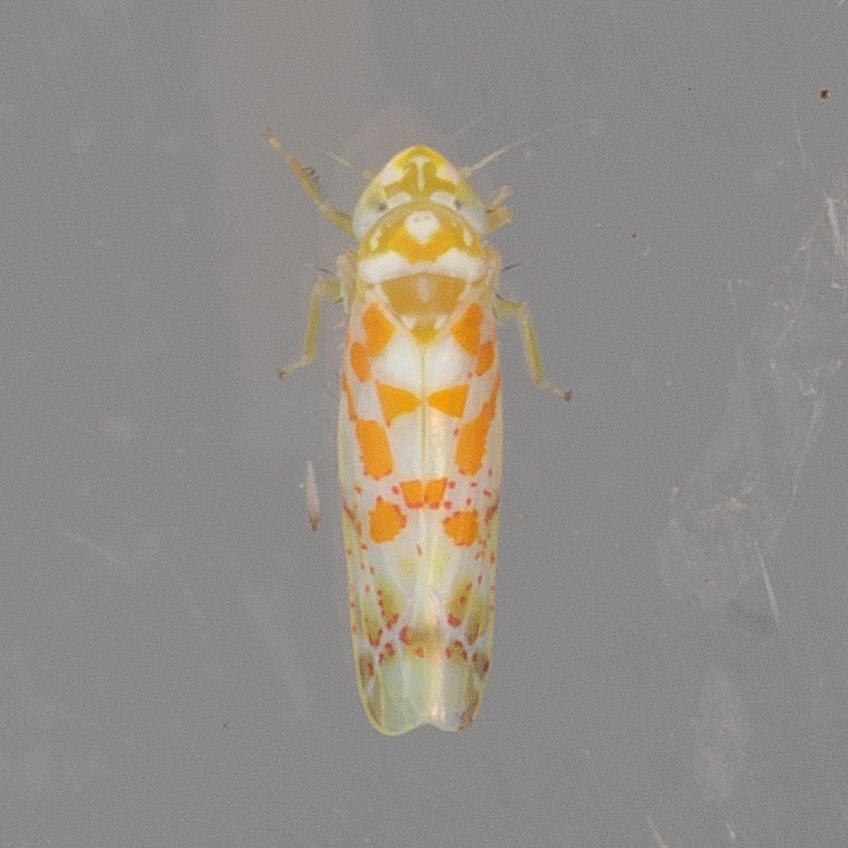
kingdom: Animalia
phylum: Arthropoda
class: Insecta
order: Hemiptera
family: Cicadellidae
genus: Dikrella
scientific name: Dikrella maculata
